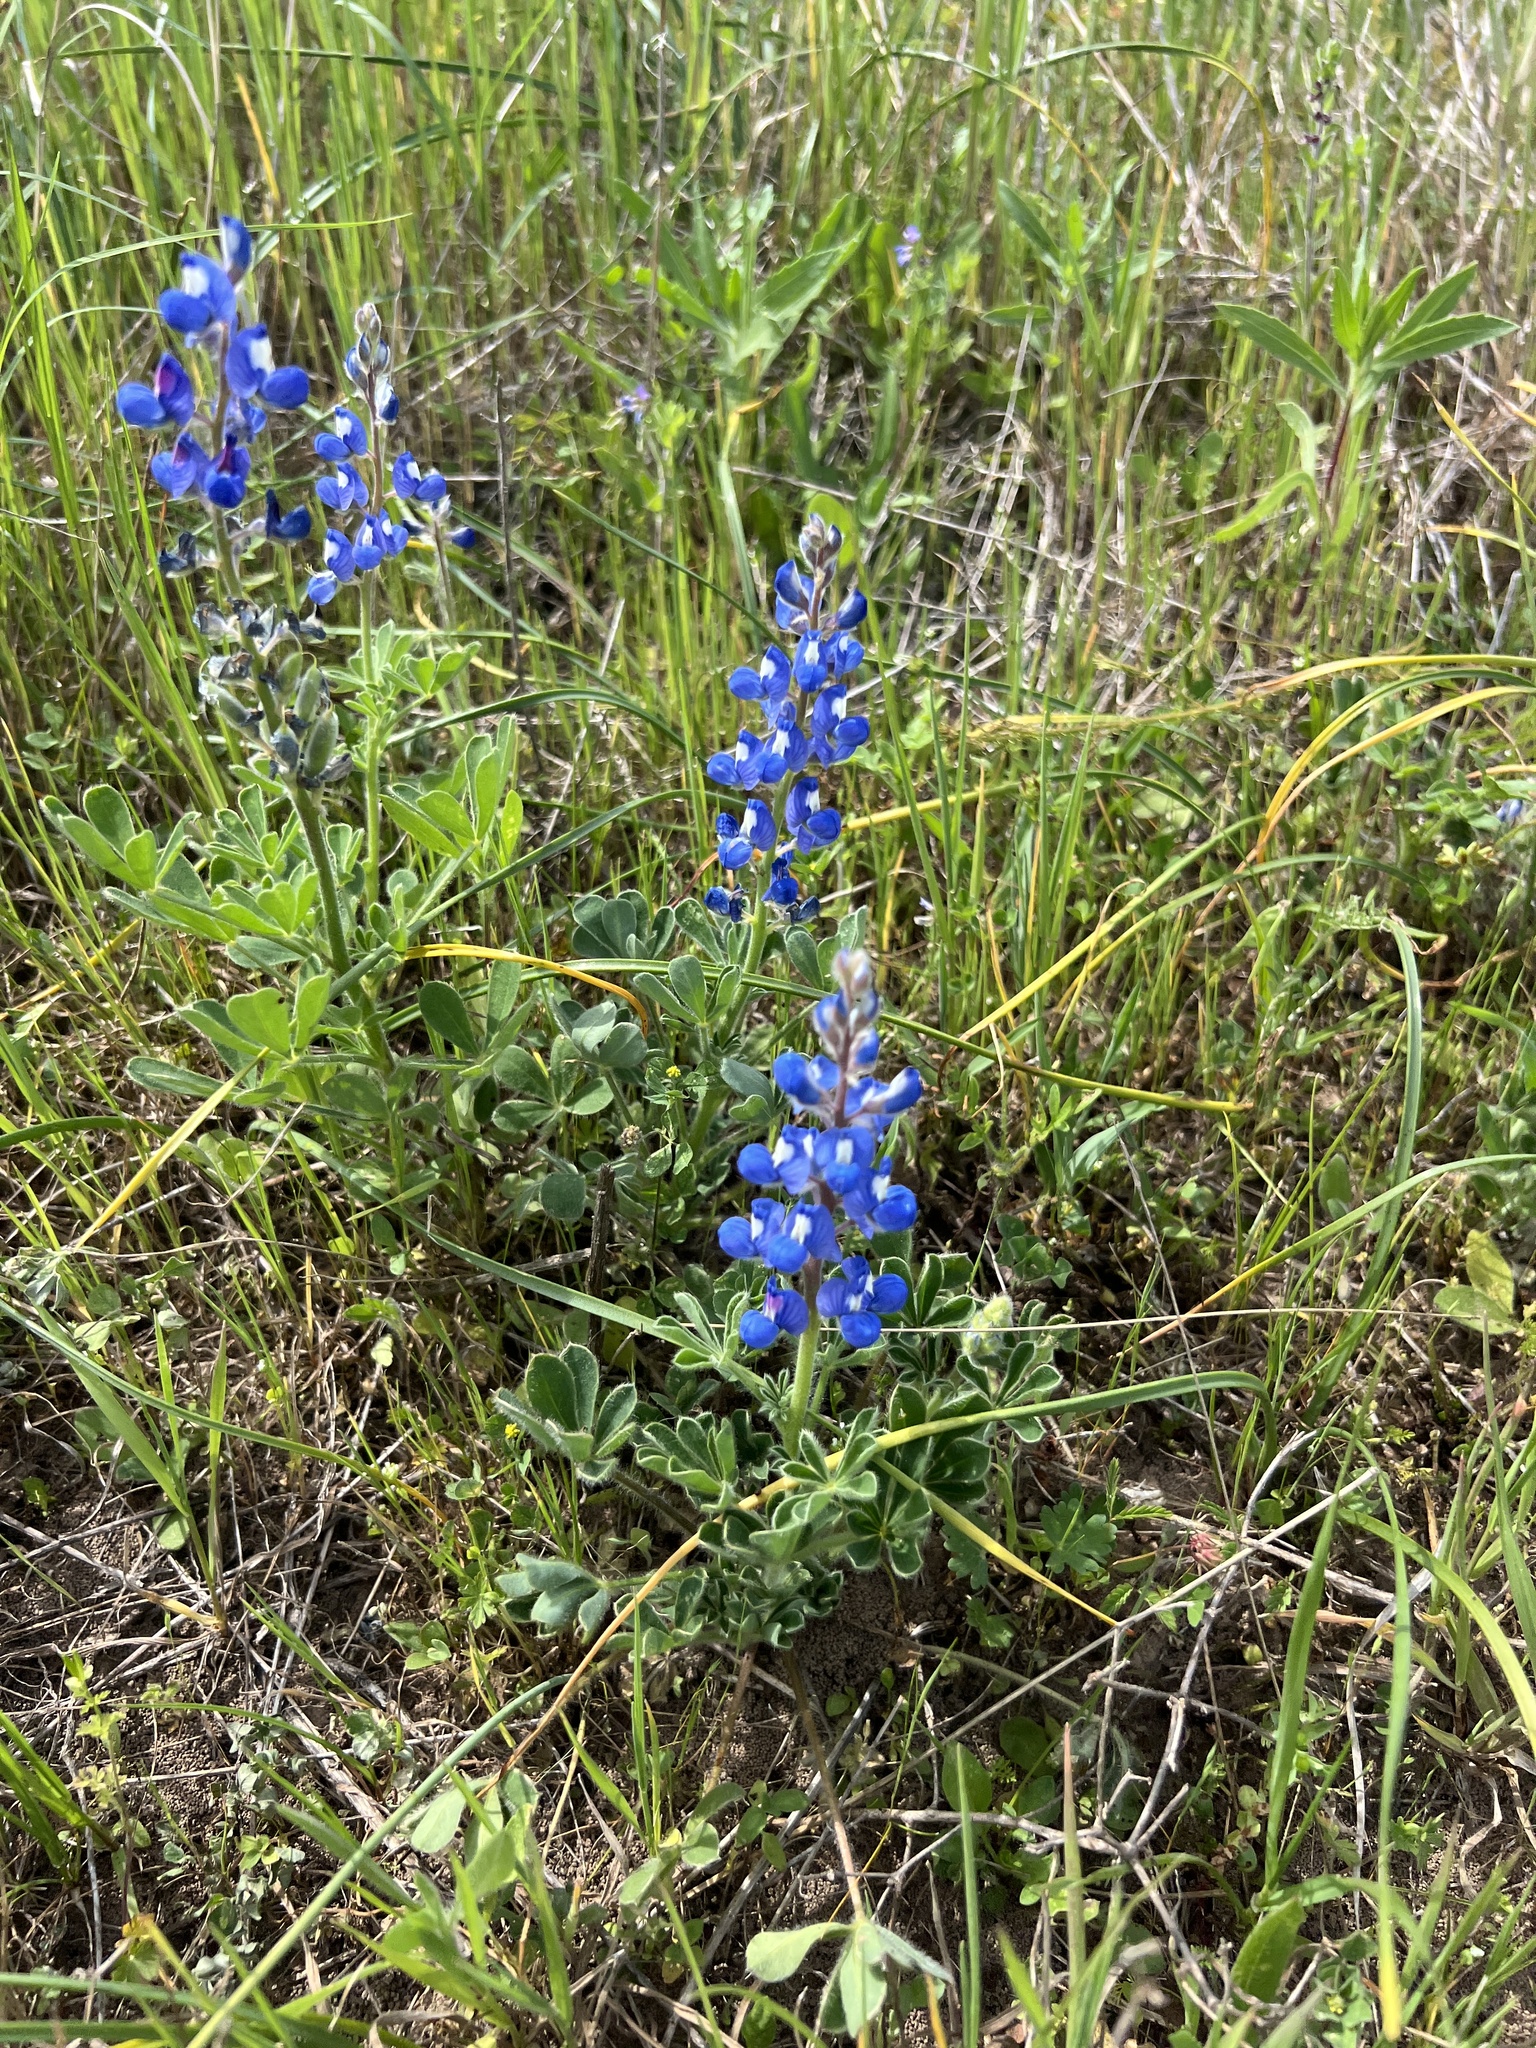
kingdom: Plantae
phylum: Tracheophyta
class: Magnoliopsida
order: Fabales
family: Fabaceae
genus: Lupinus
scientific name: Lupinus subcarnosus
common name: Texas bluebonnet
